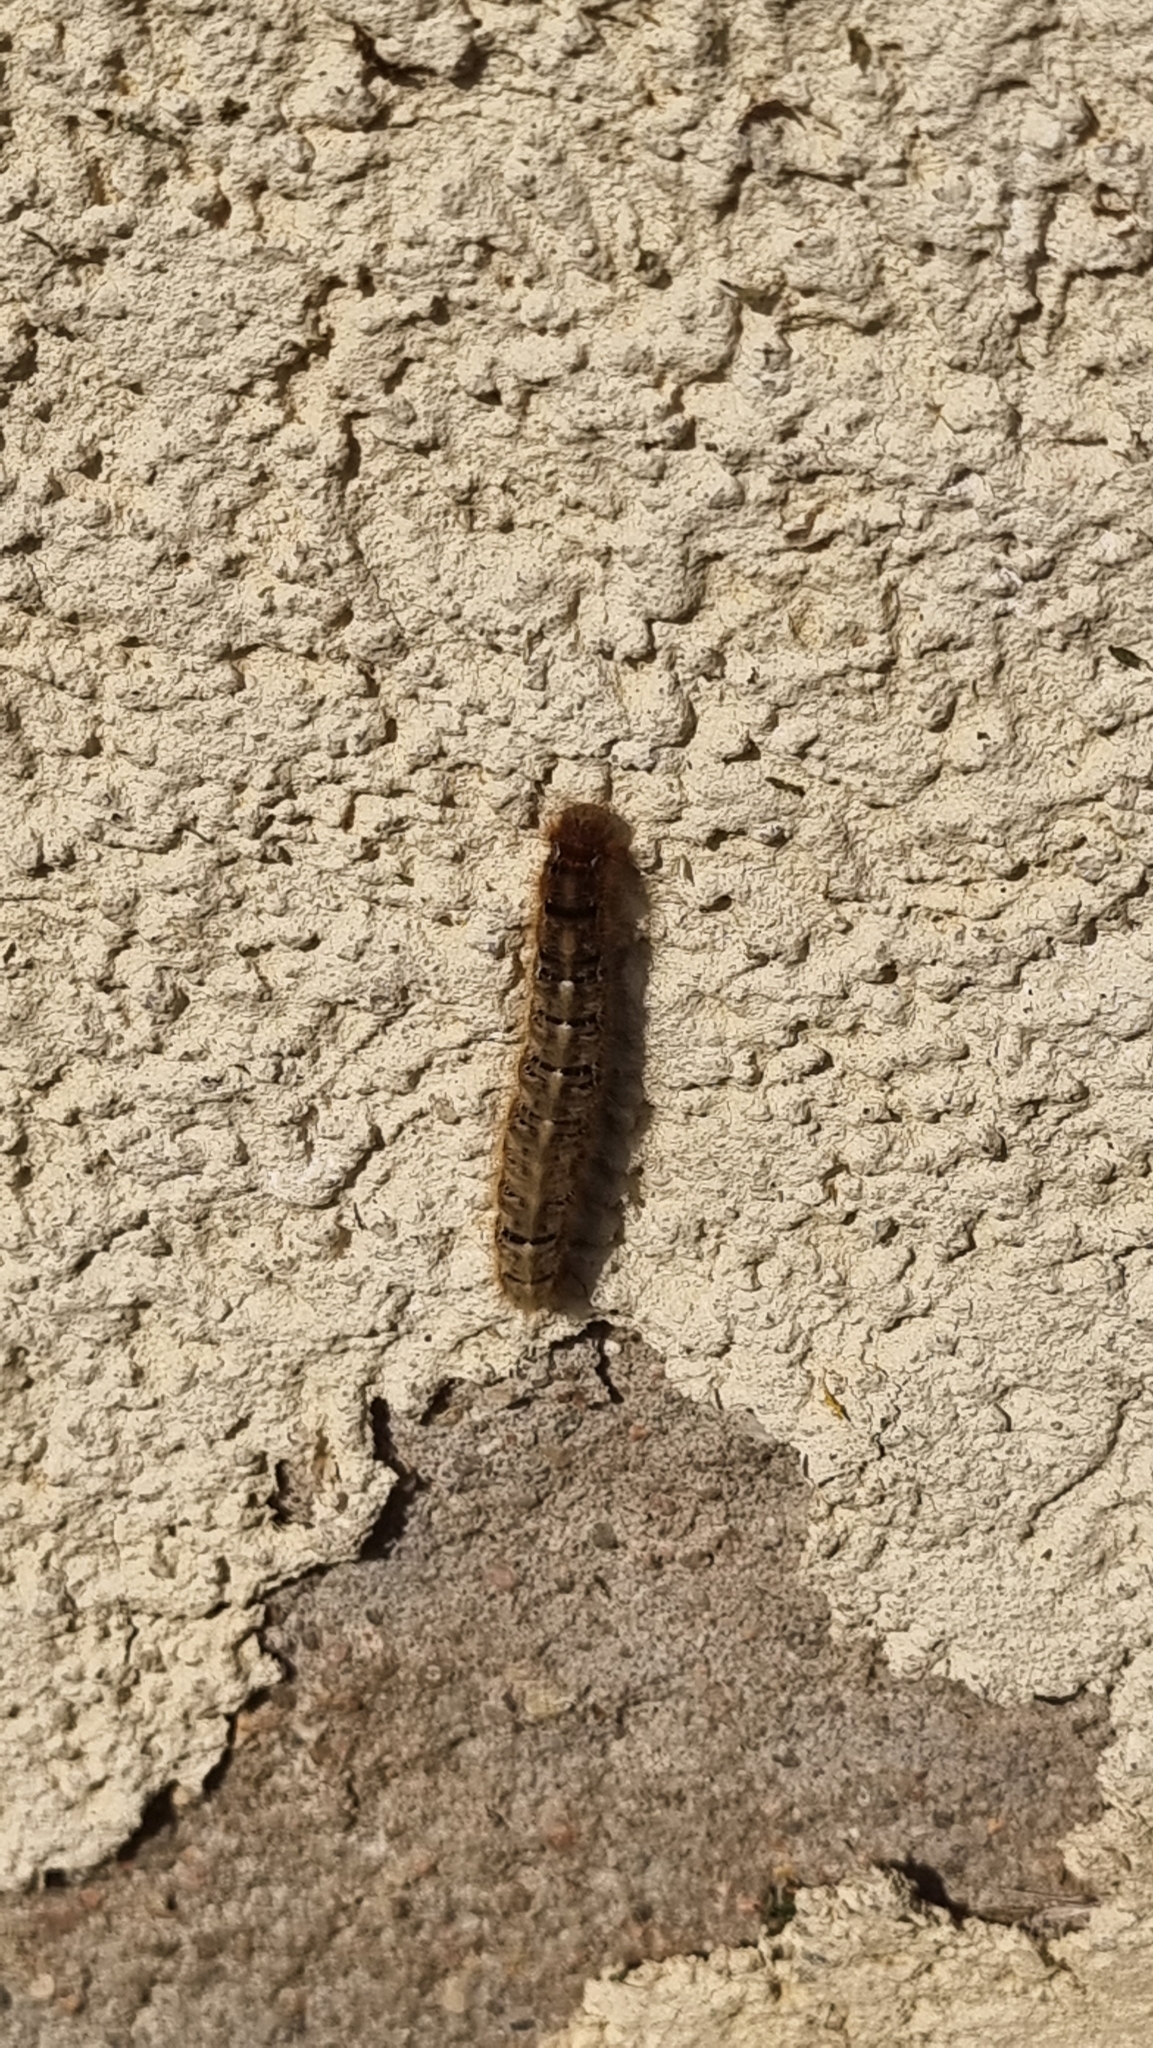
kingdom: Animalia
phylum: Arthropoda
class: Insecta
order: Lepidoptera
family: Lasiocampidae
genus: Lasiocampa
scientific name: Lasiocampa quercus
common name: Oak eggar
